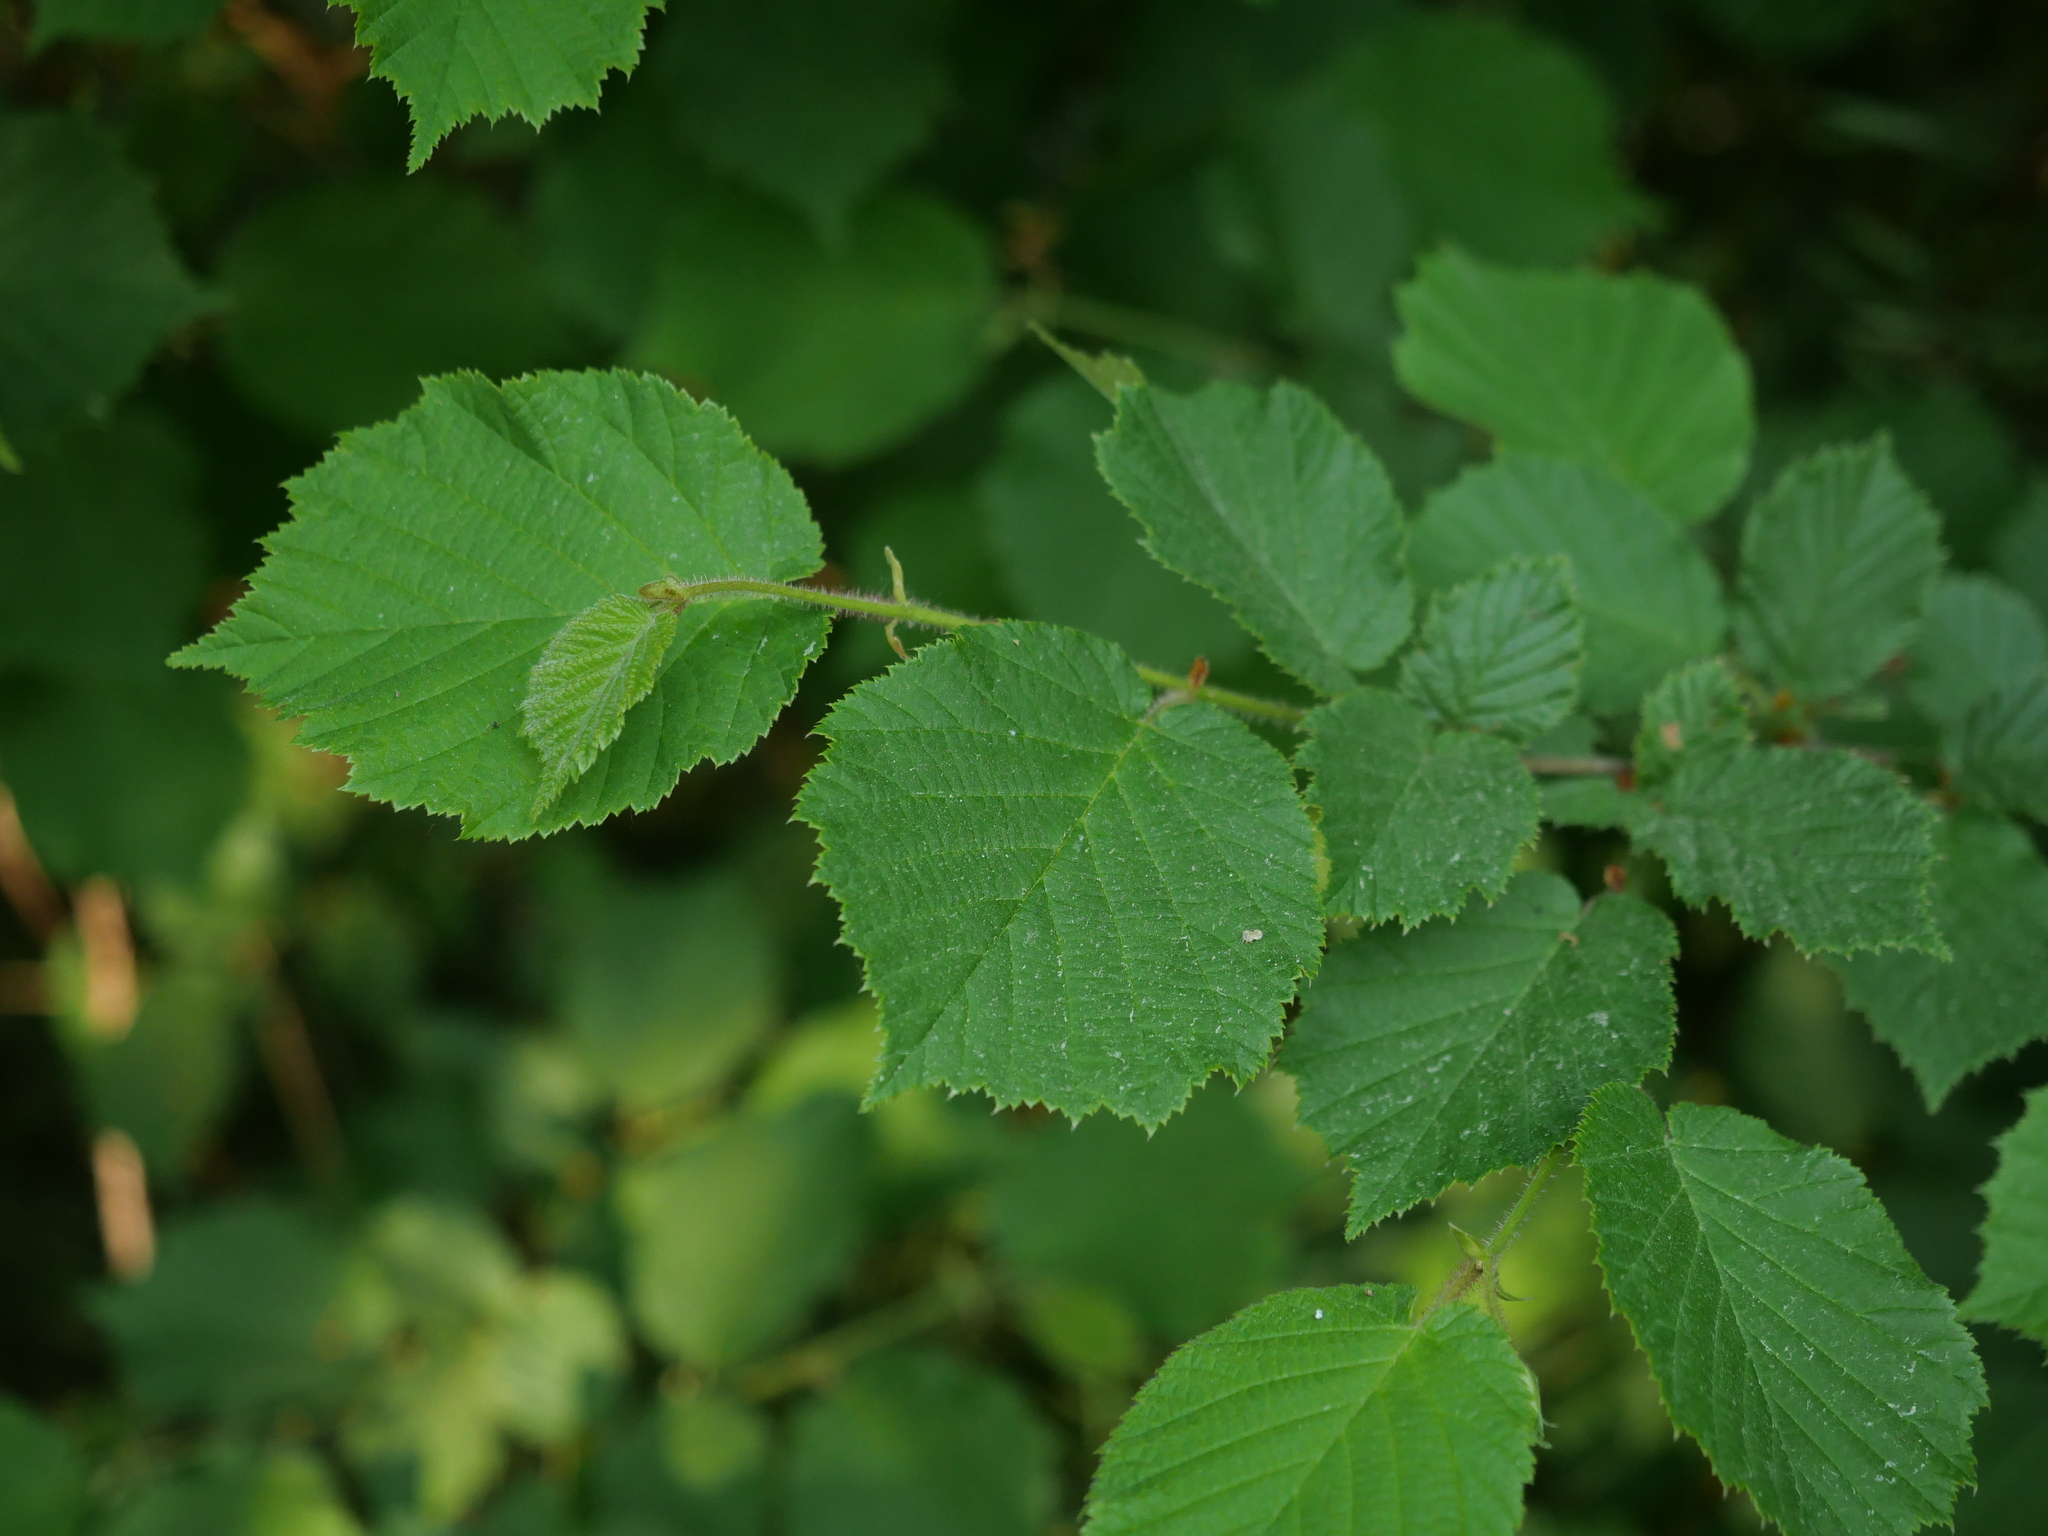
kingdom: Plantae
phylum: Tracheophyta
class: Magnoliopsida
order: Fagales
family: Betulaceae
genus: Corylus
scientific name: Corylus avellana
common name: European hazel
